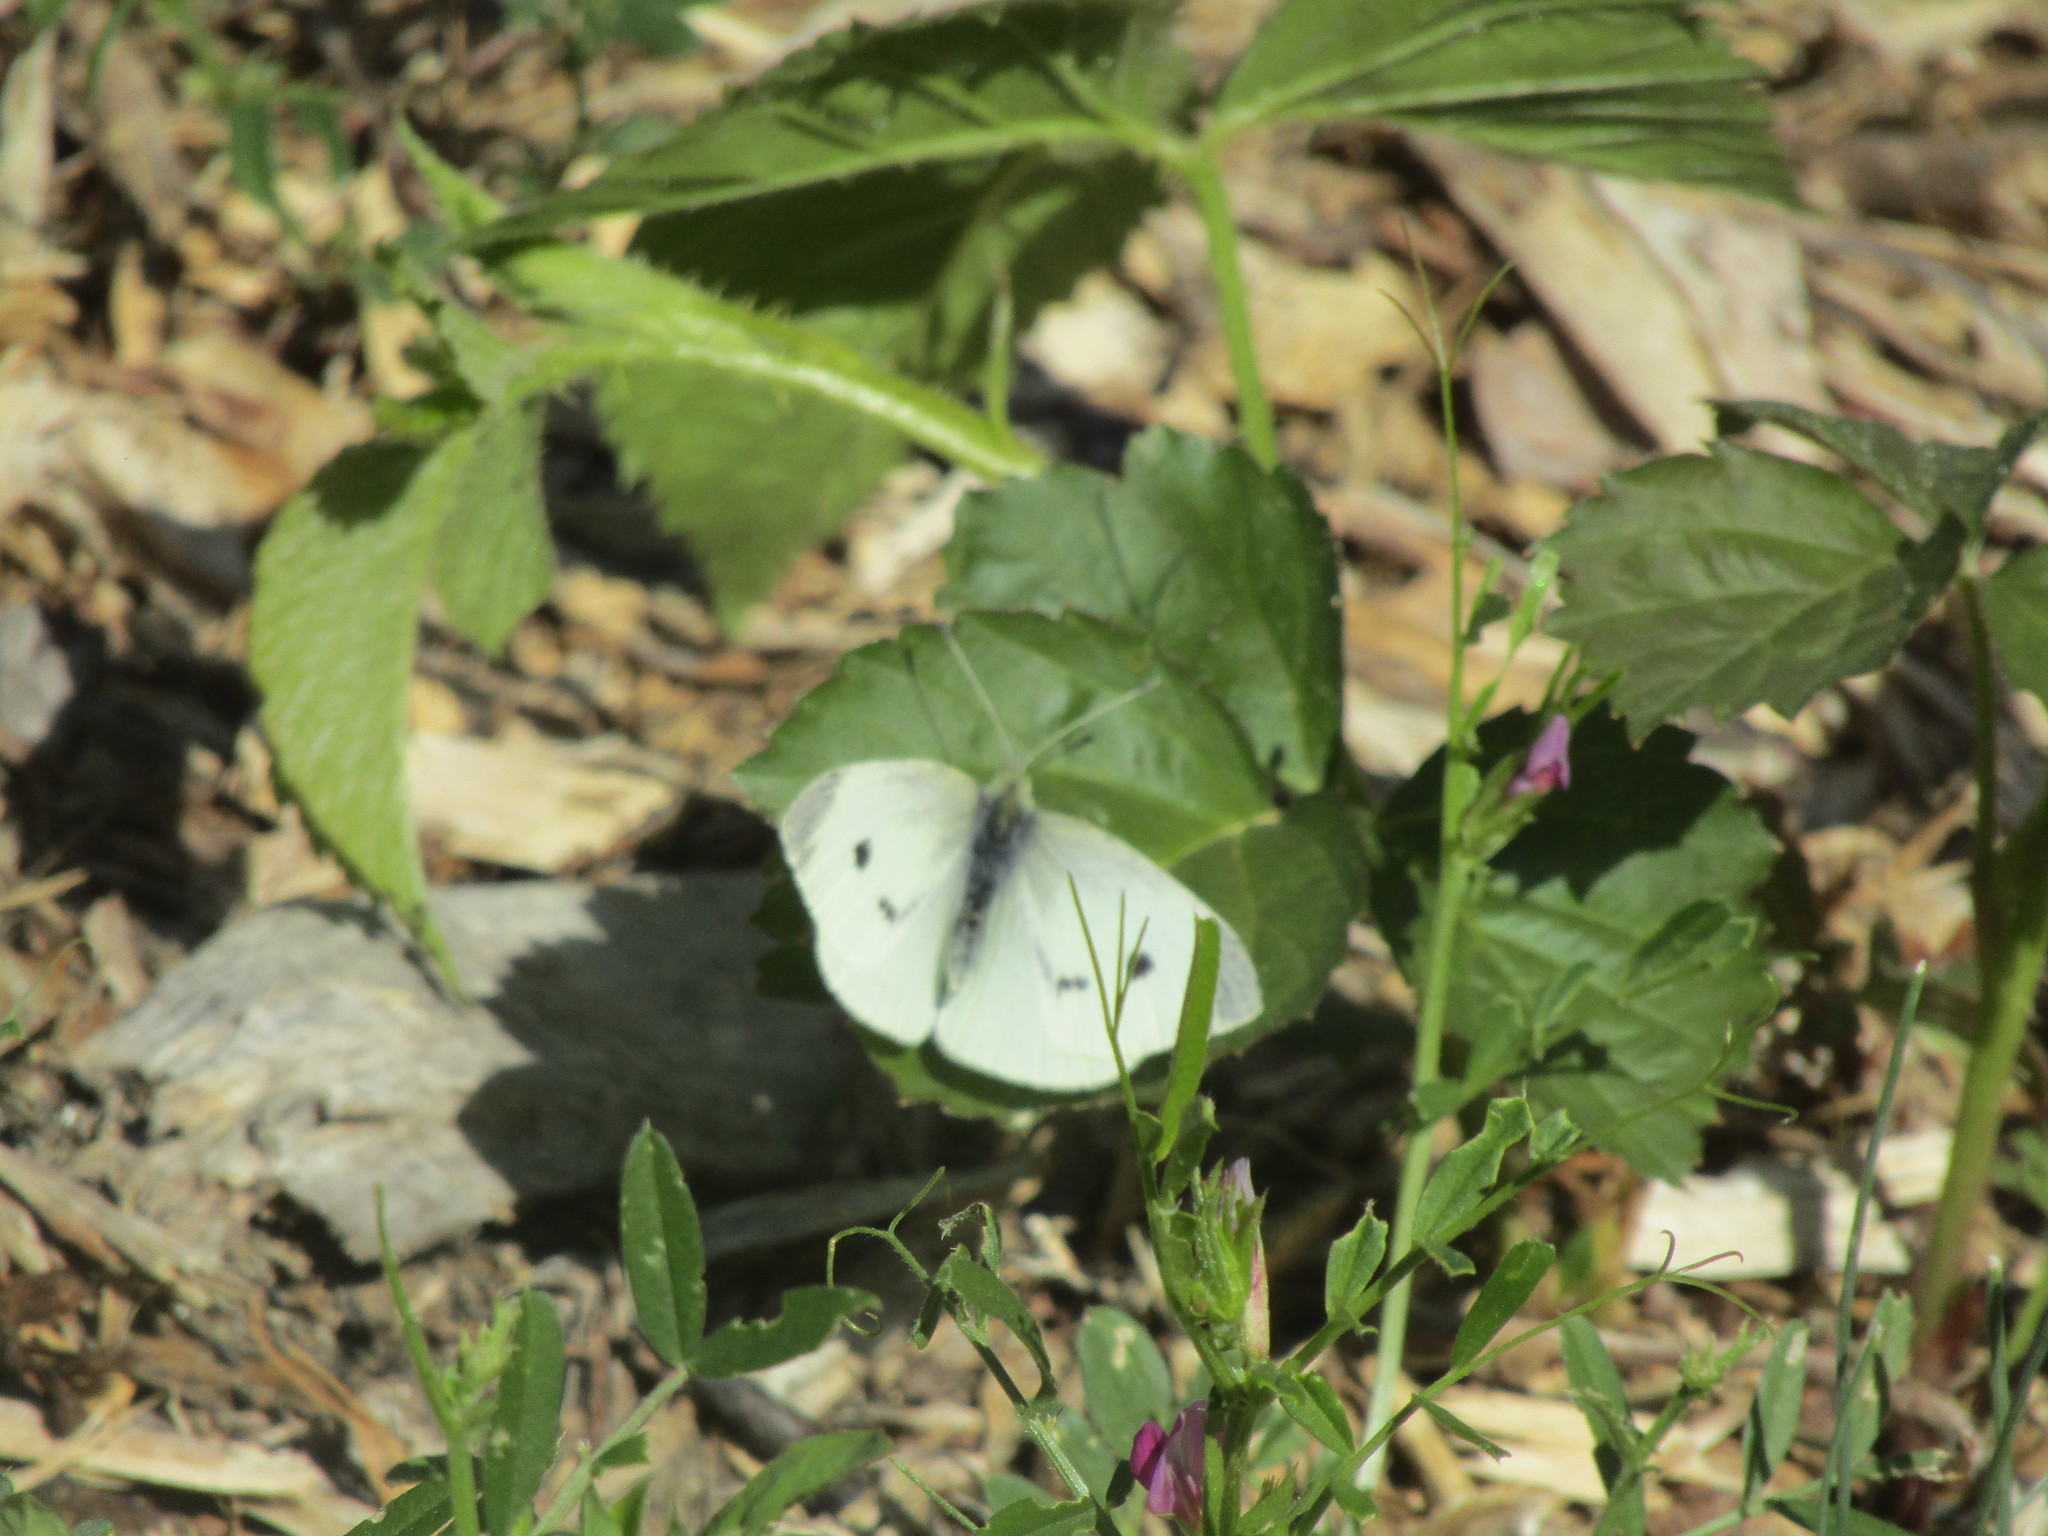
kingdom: Animalia
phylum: Arthropoda
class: Insecta
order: Lepidoptera
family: Pieridae
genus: Pieris
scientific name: Pieris rapae
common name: Small white
